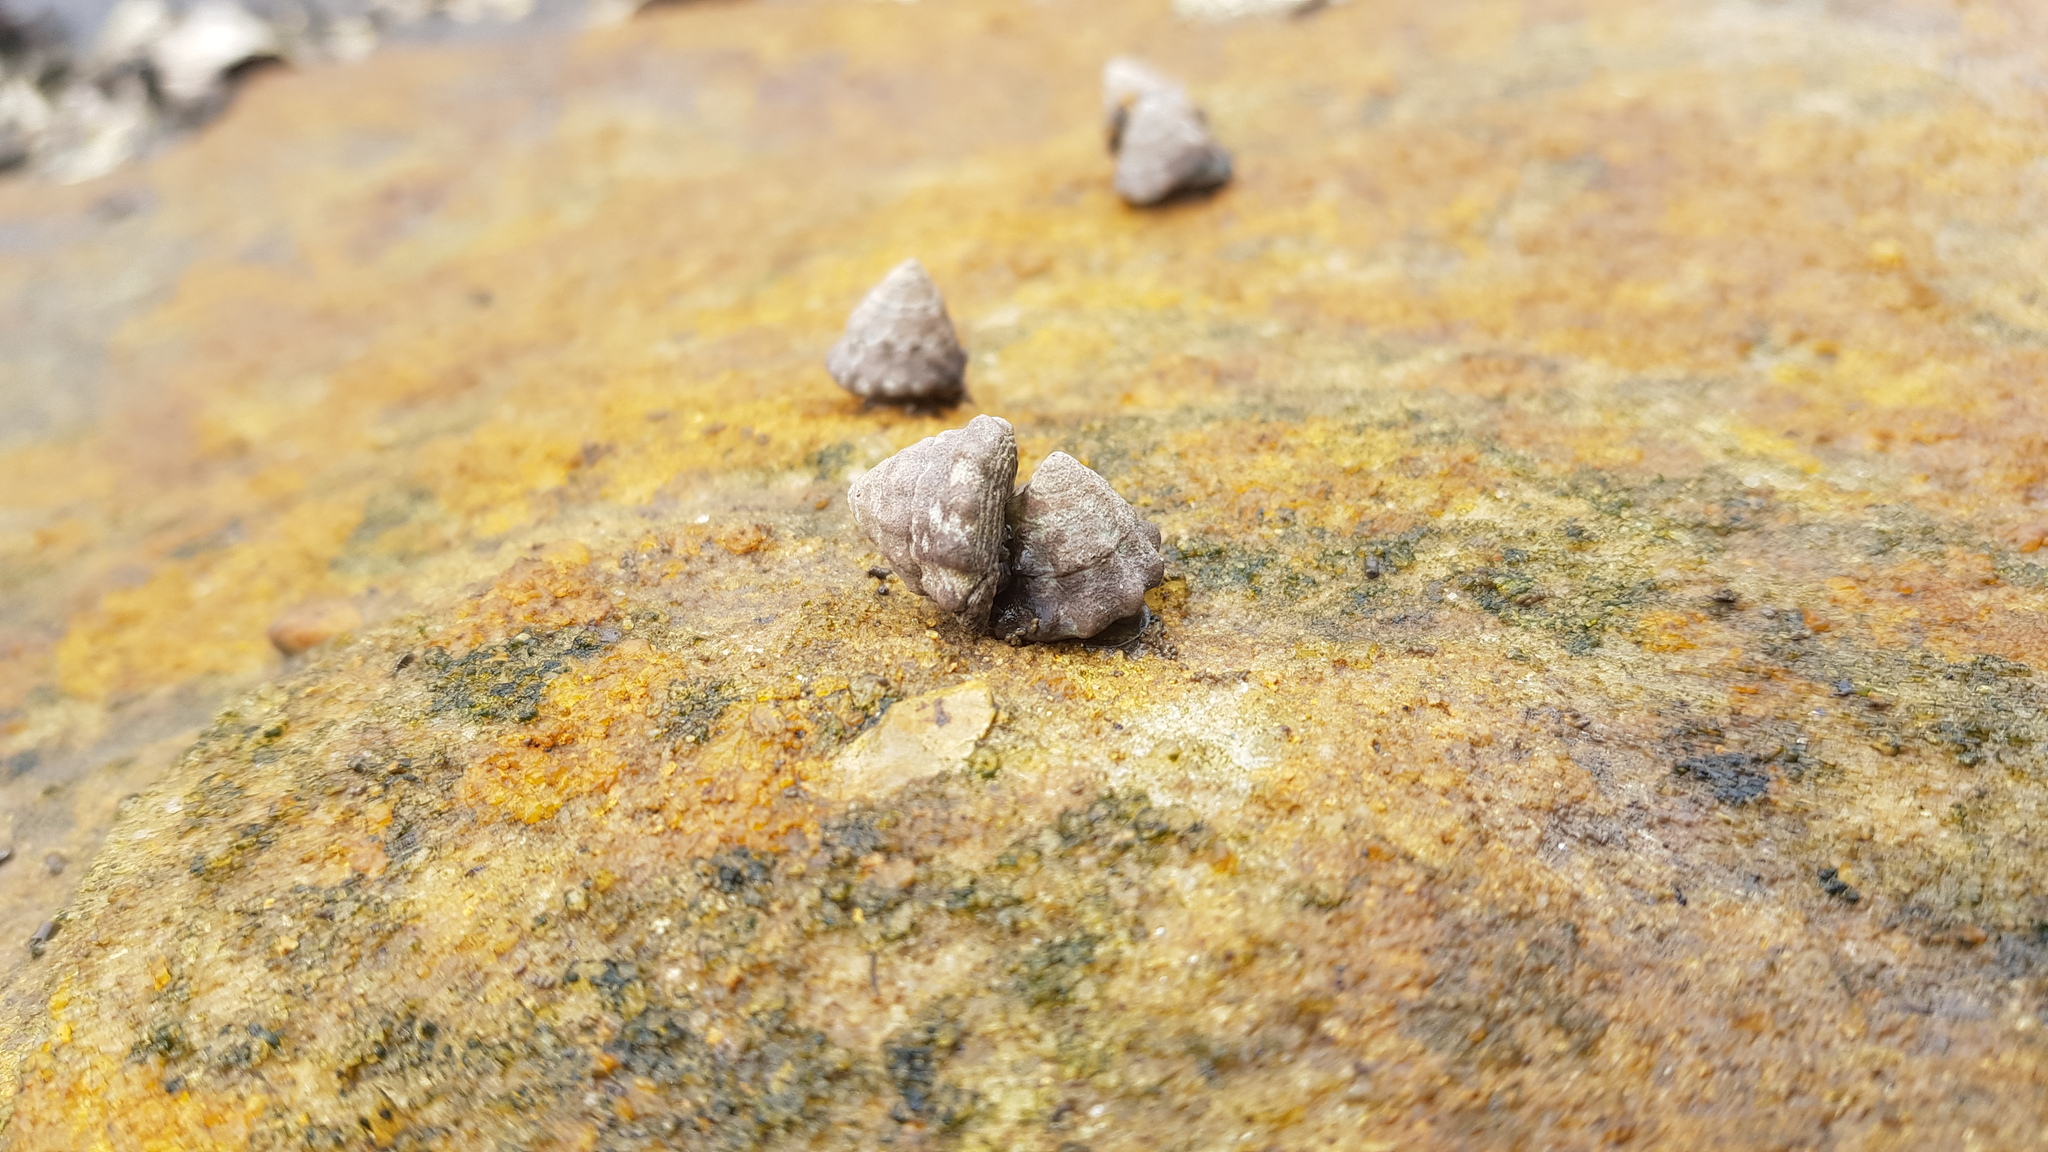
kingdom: Animalia
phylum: Mollusca
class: Gastropoda
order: Littorinimorpha
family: Littorinidae
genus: Bembicium
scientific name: Bembicium auratum
